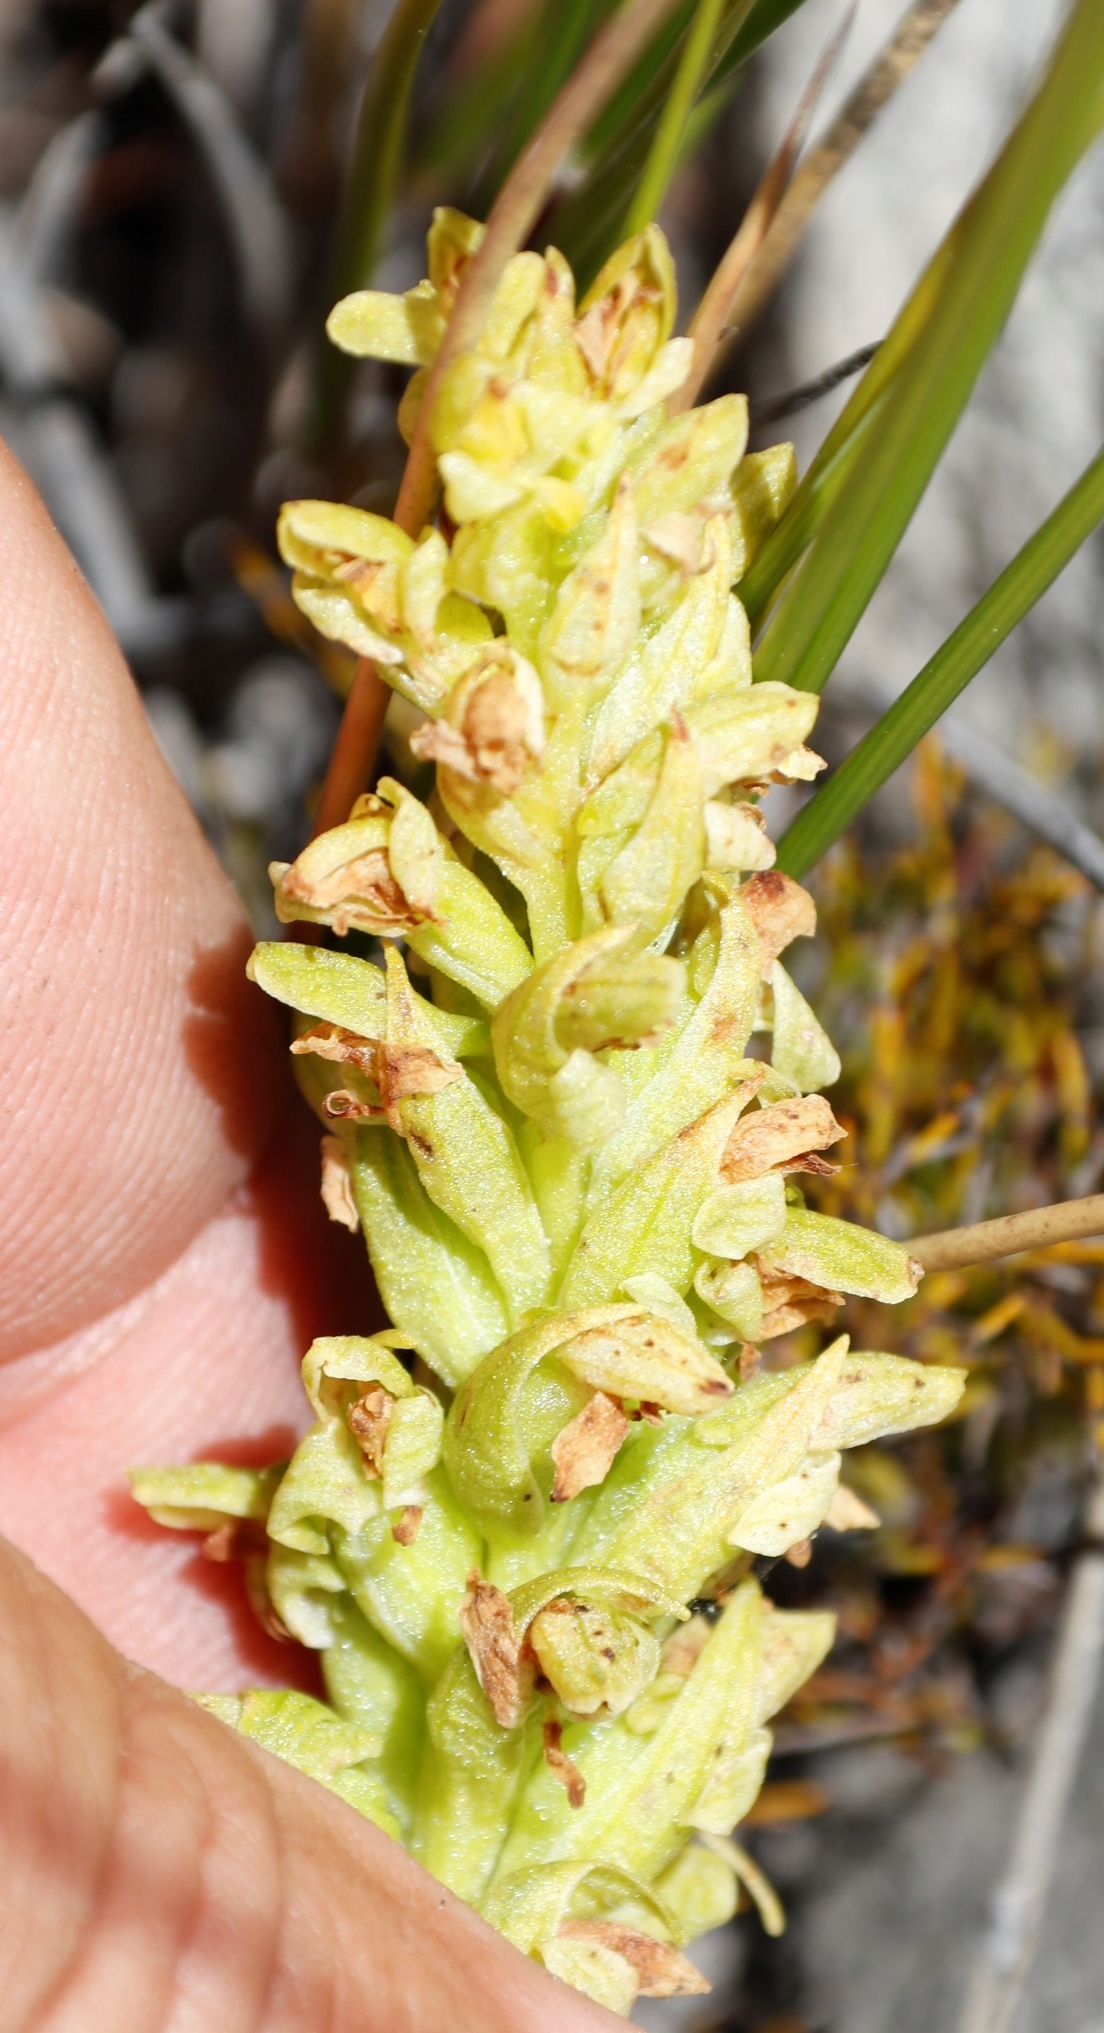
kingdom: Plantae
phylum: Tracheophyta
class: Liliopsida
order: Asparagales
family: Orchidaceae
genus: Disa
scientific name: Disa cylindrica
